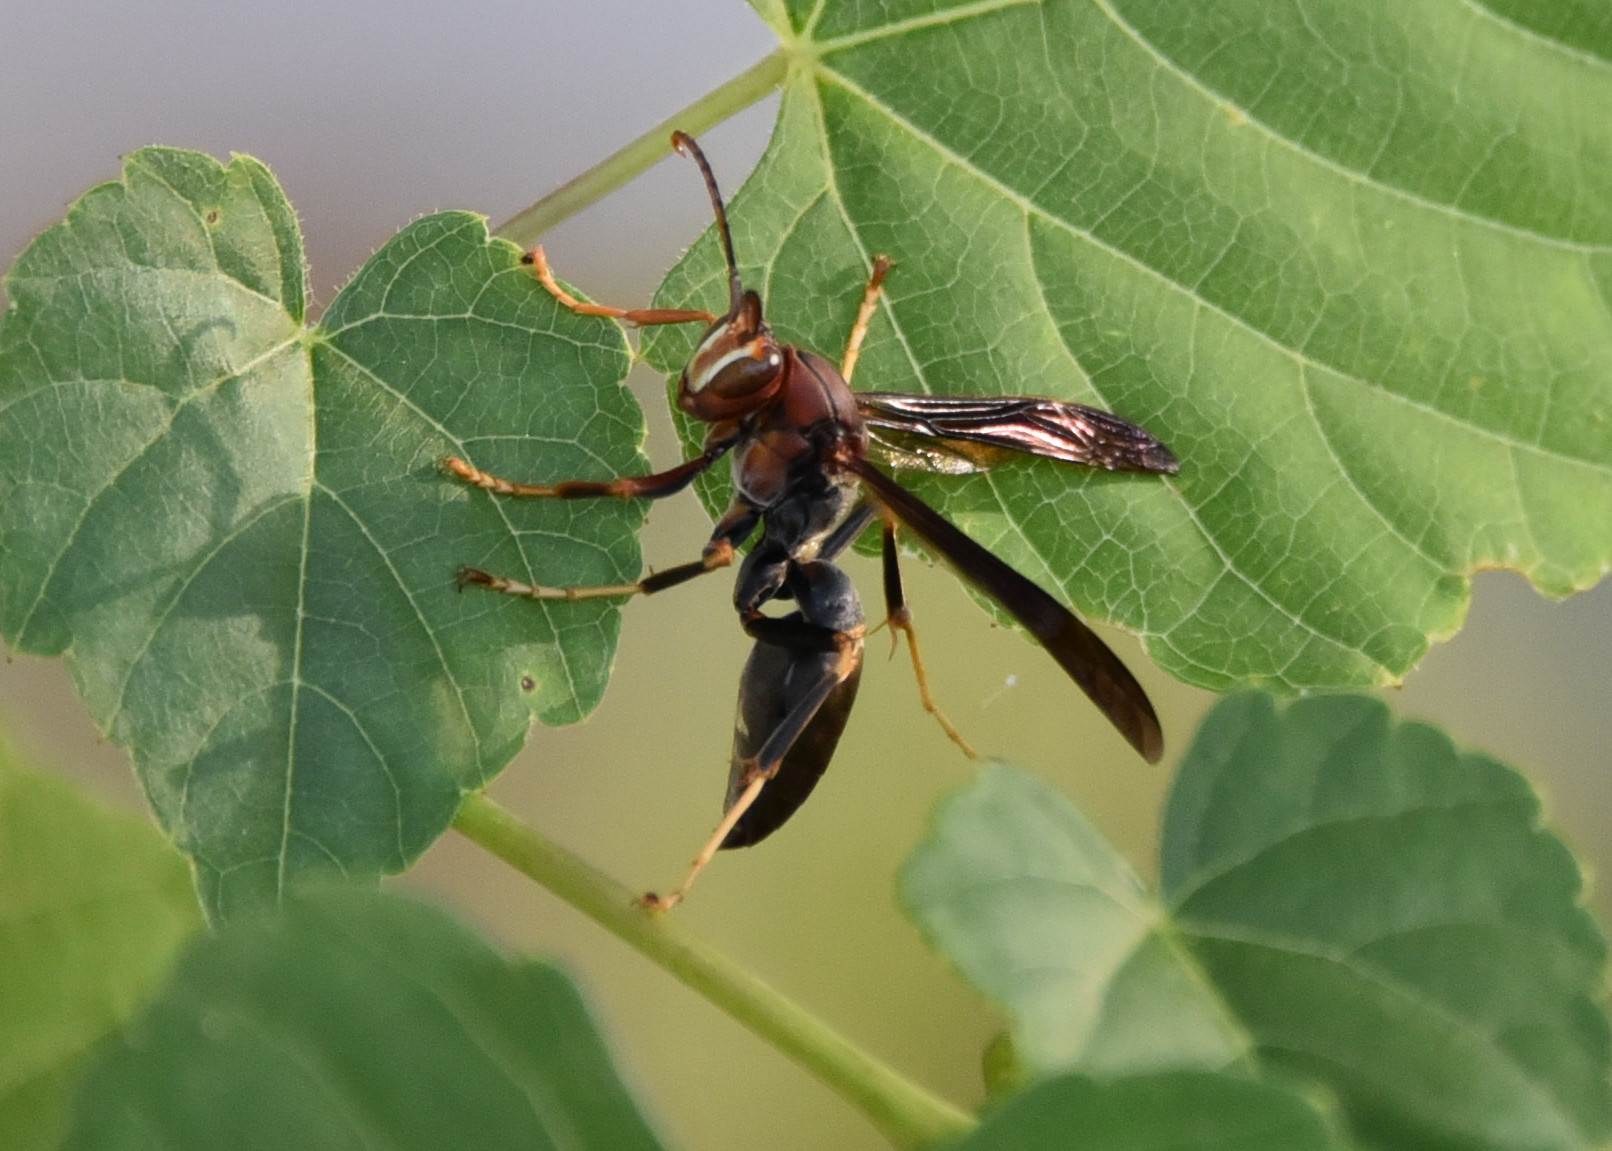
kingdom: Animalia
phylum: Arthropoda
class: Insecta
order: Hymenoptera
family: Eumenidae
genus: Polistes
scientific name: Polistes metricus
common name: Metric paper wasp
